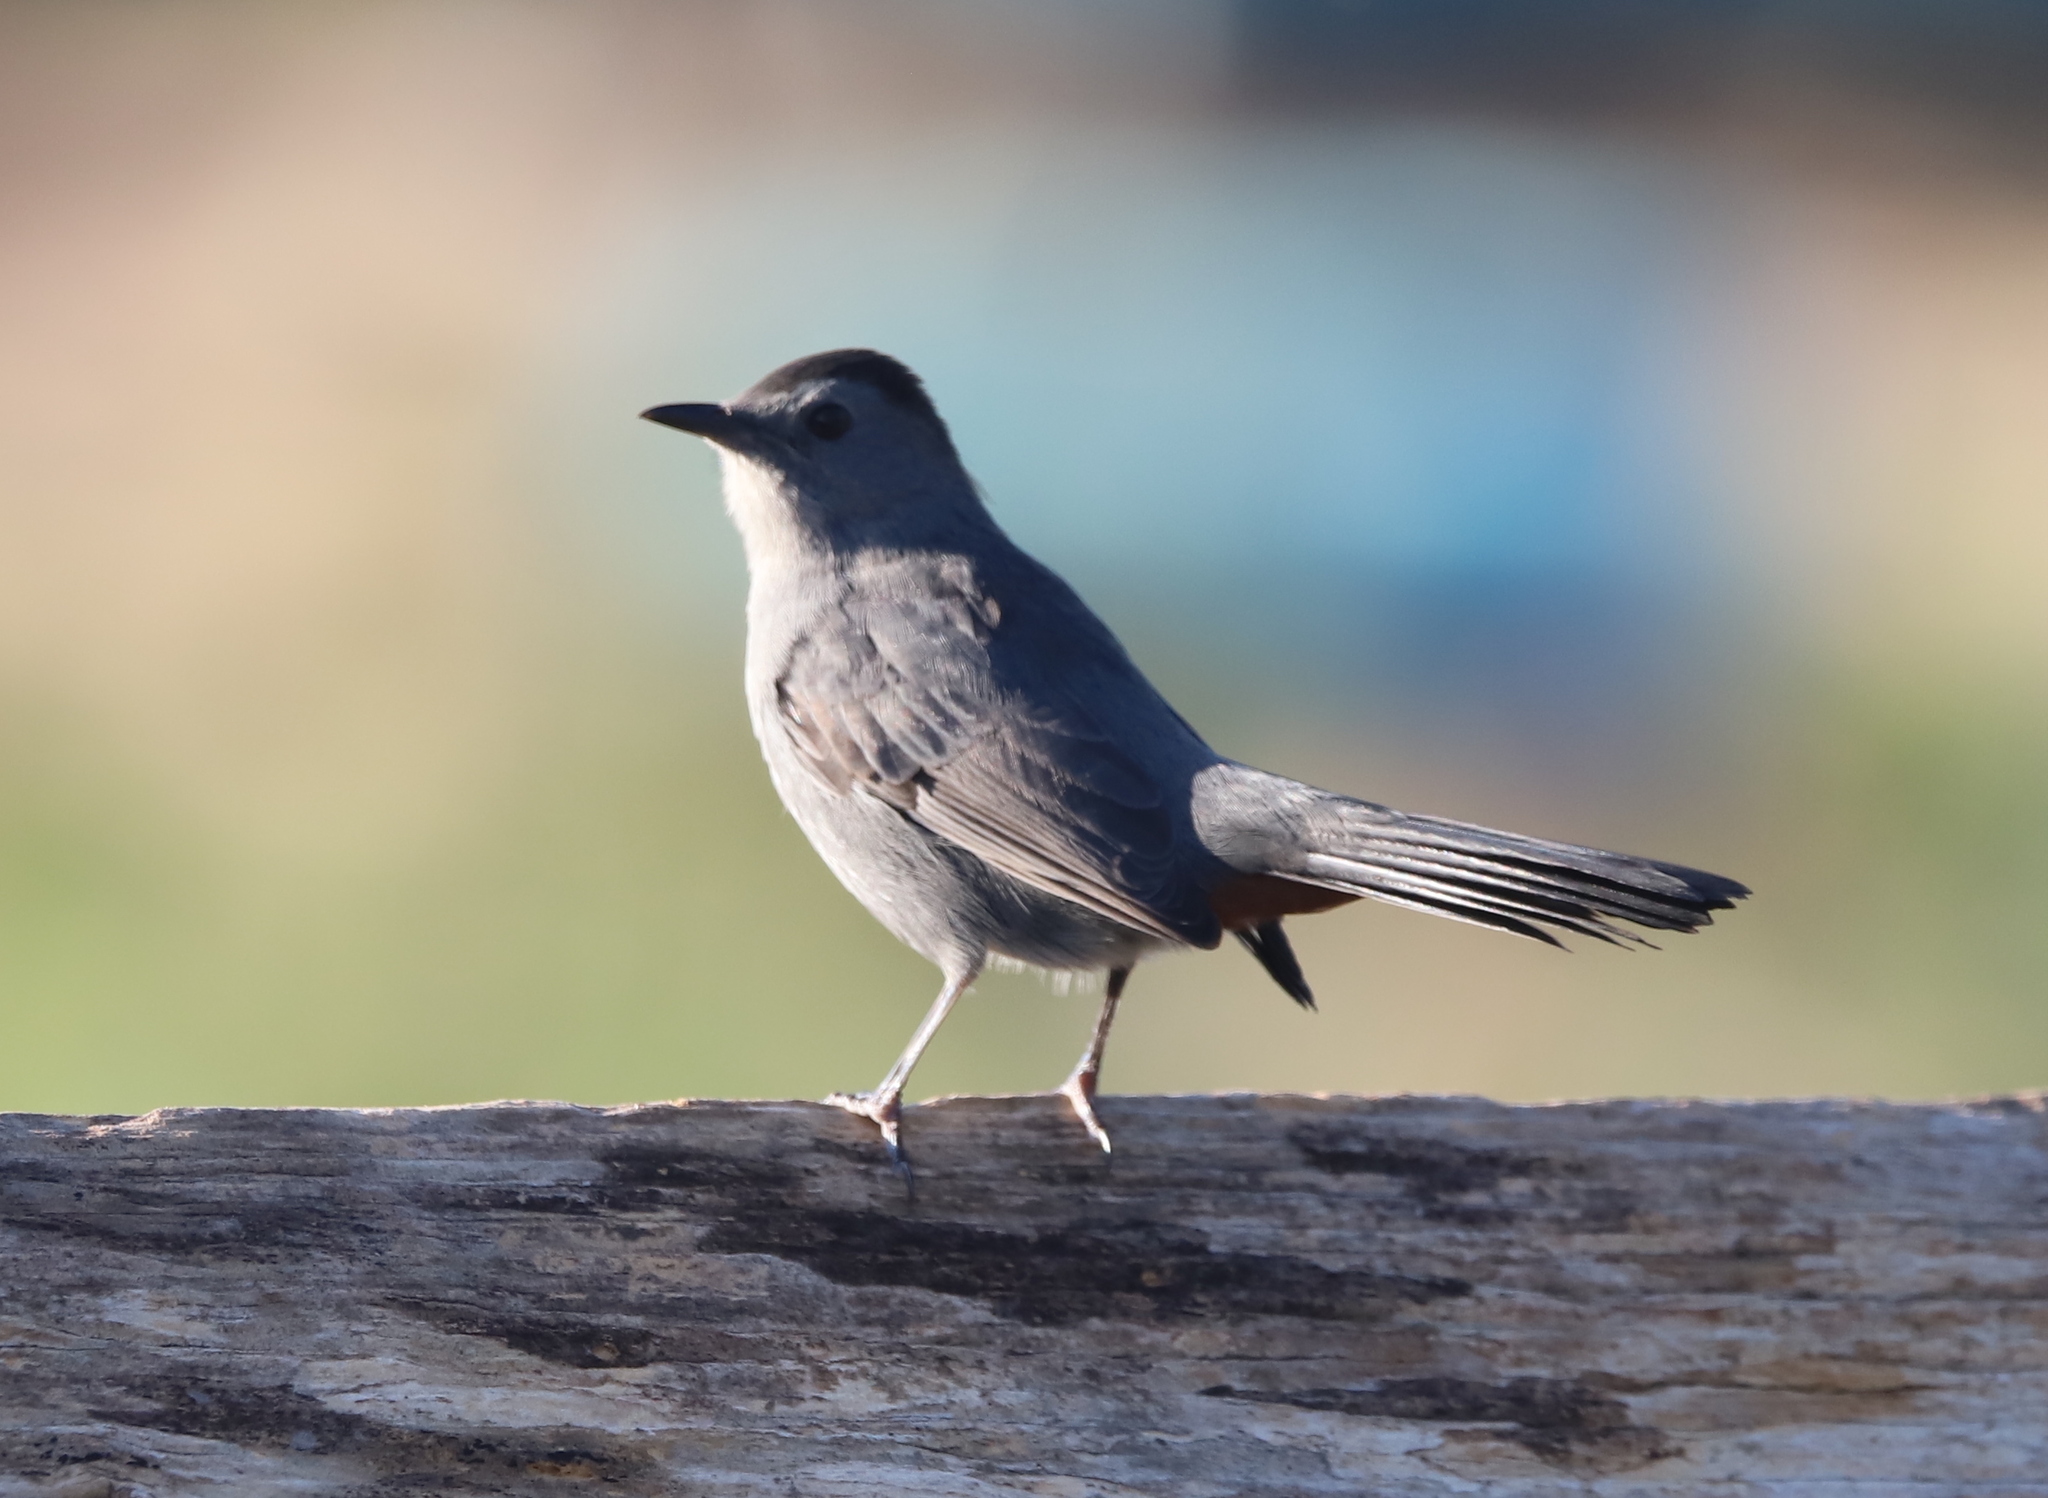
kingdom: Animalia
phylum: Chordata
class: Aves
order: Passeriformes
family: Mimidae
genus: Dumetella
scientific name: Dumetella carolinensis
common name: Gray catbird
